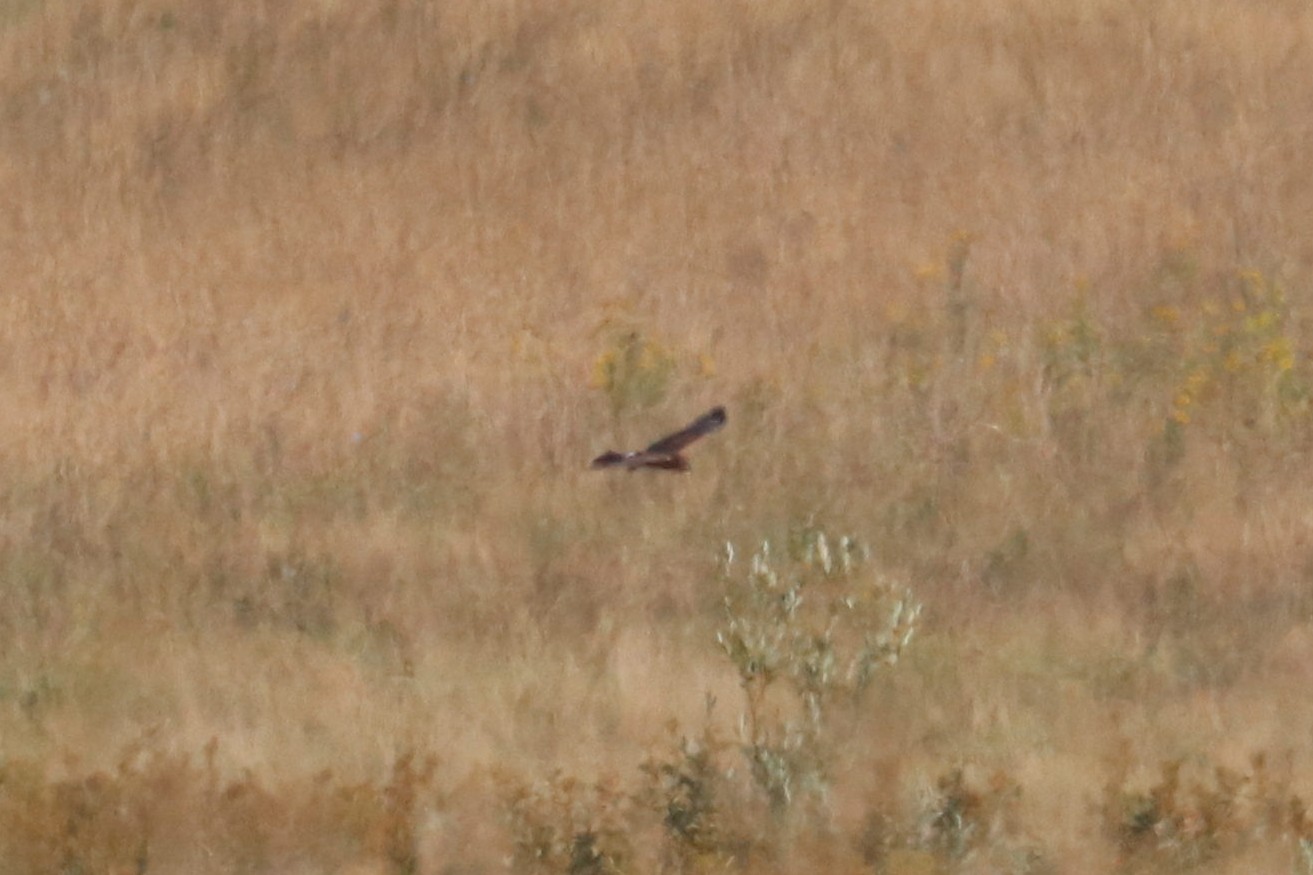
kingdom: Animalia
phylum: Chordata
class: Aves
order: Accipitriformes
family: Accipitridae
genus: Circus
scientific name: Circus cyaneus
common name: Hen harrier
